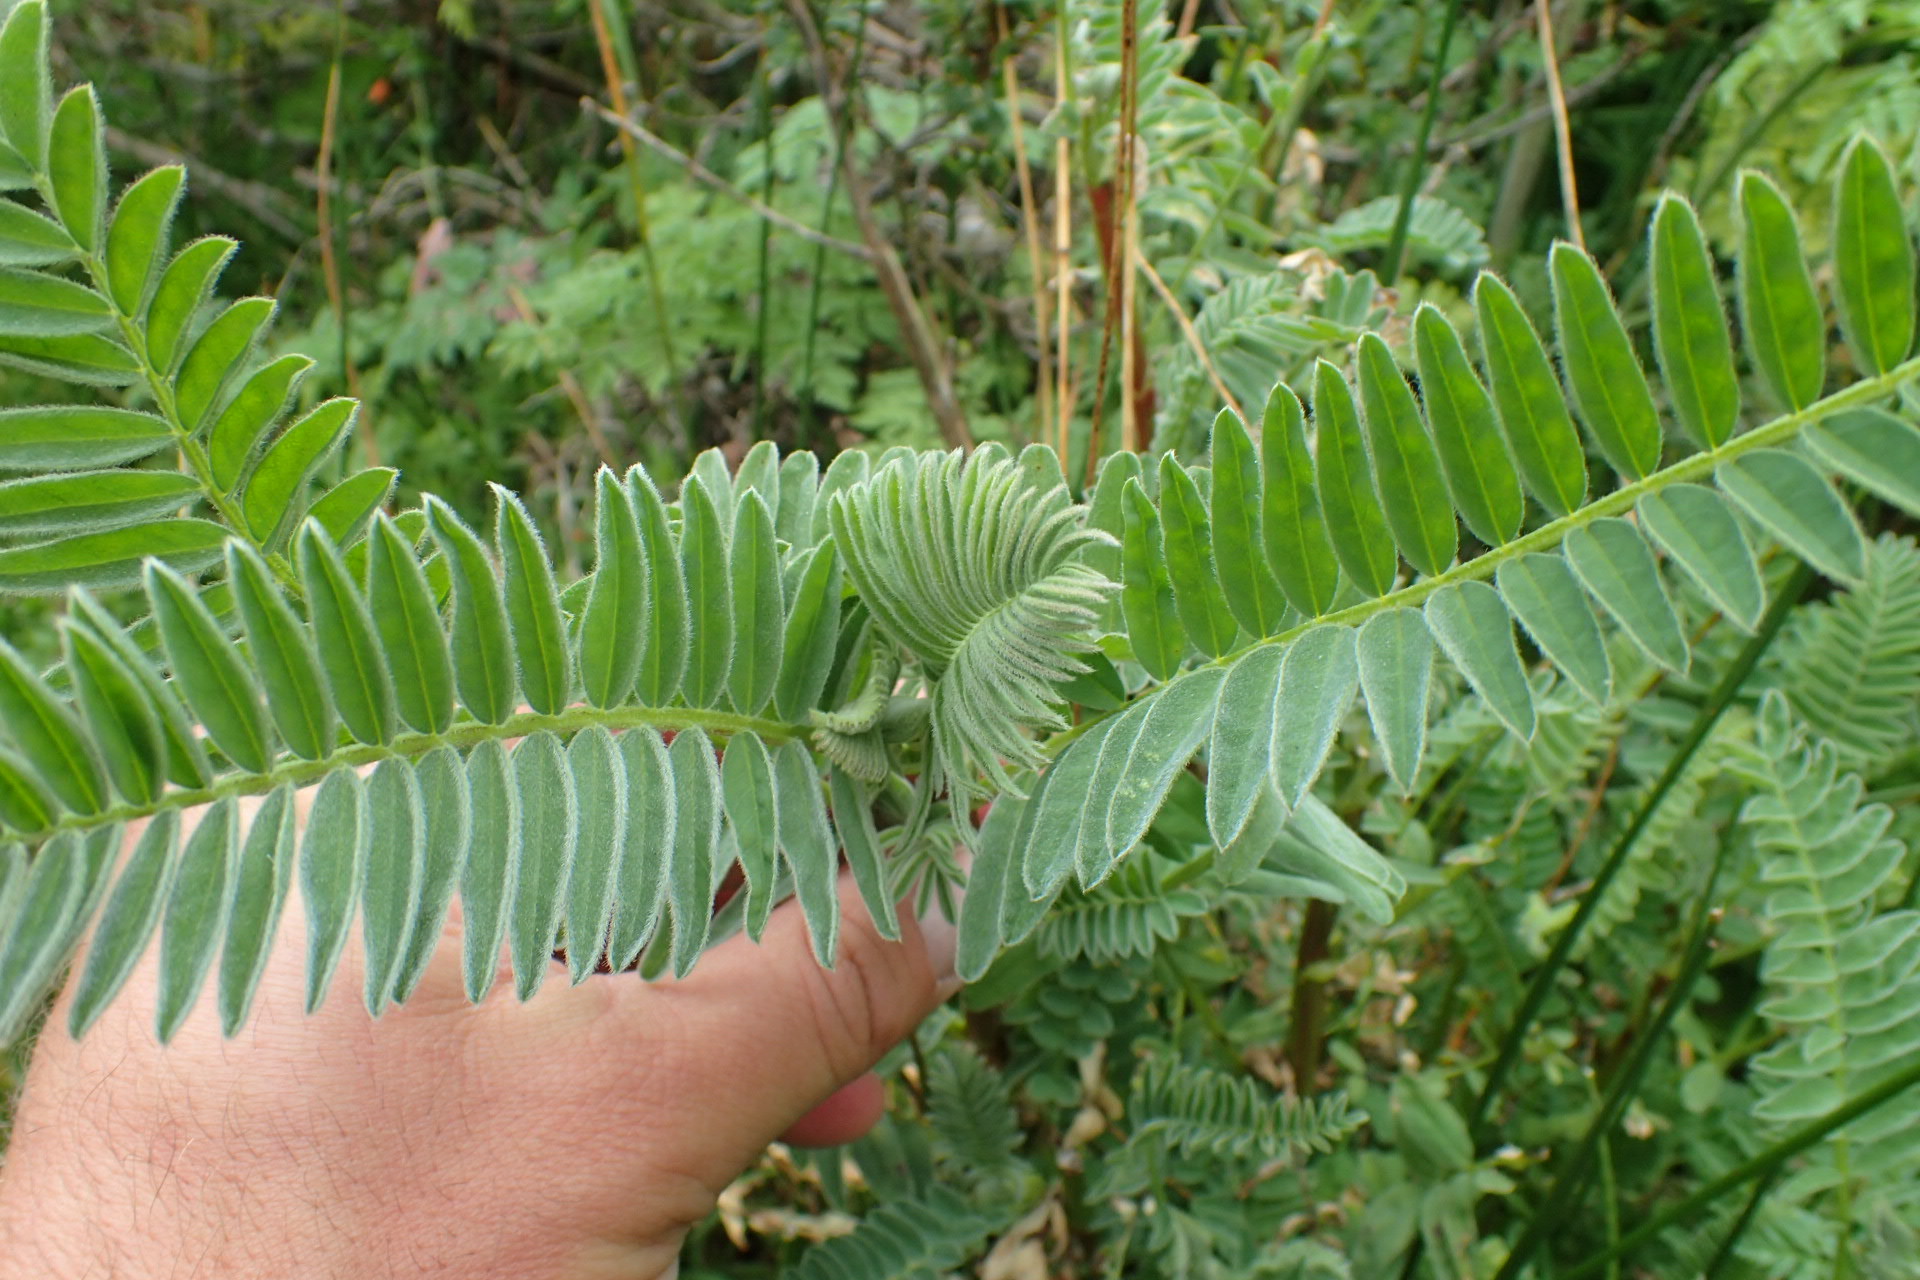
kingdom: Plantae
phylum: Tracheophyta
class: Magnoliopsida
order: Fabales
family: Fabaceae
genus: Astragalus
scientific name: Astragalus pycnostachyus
